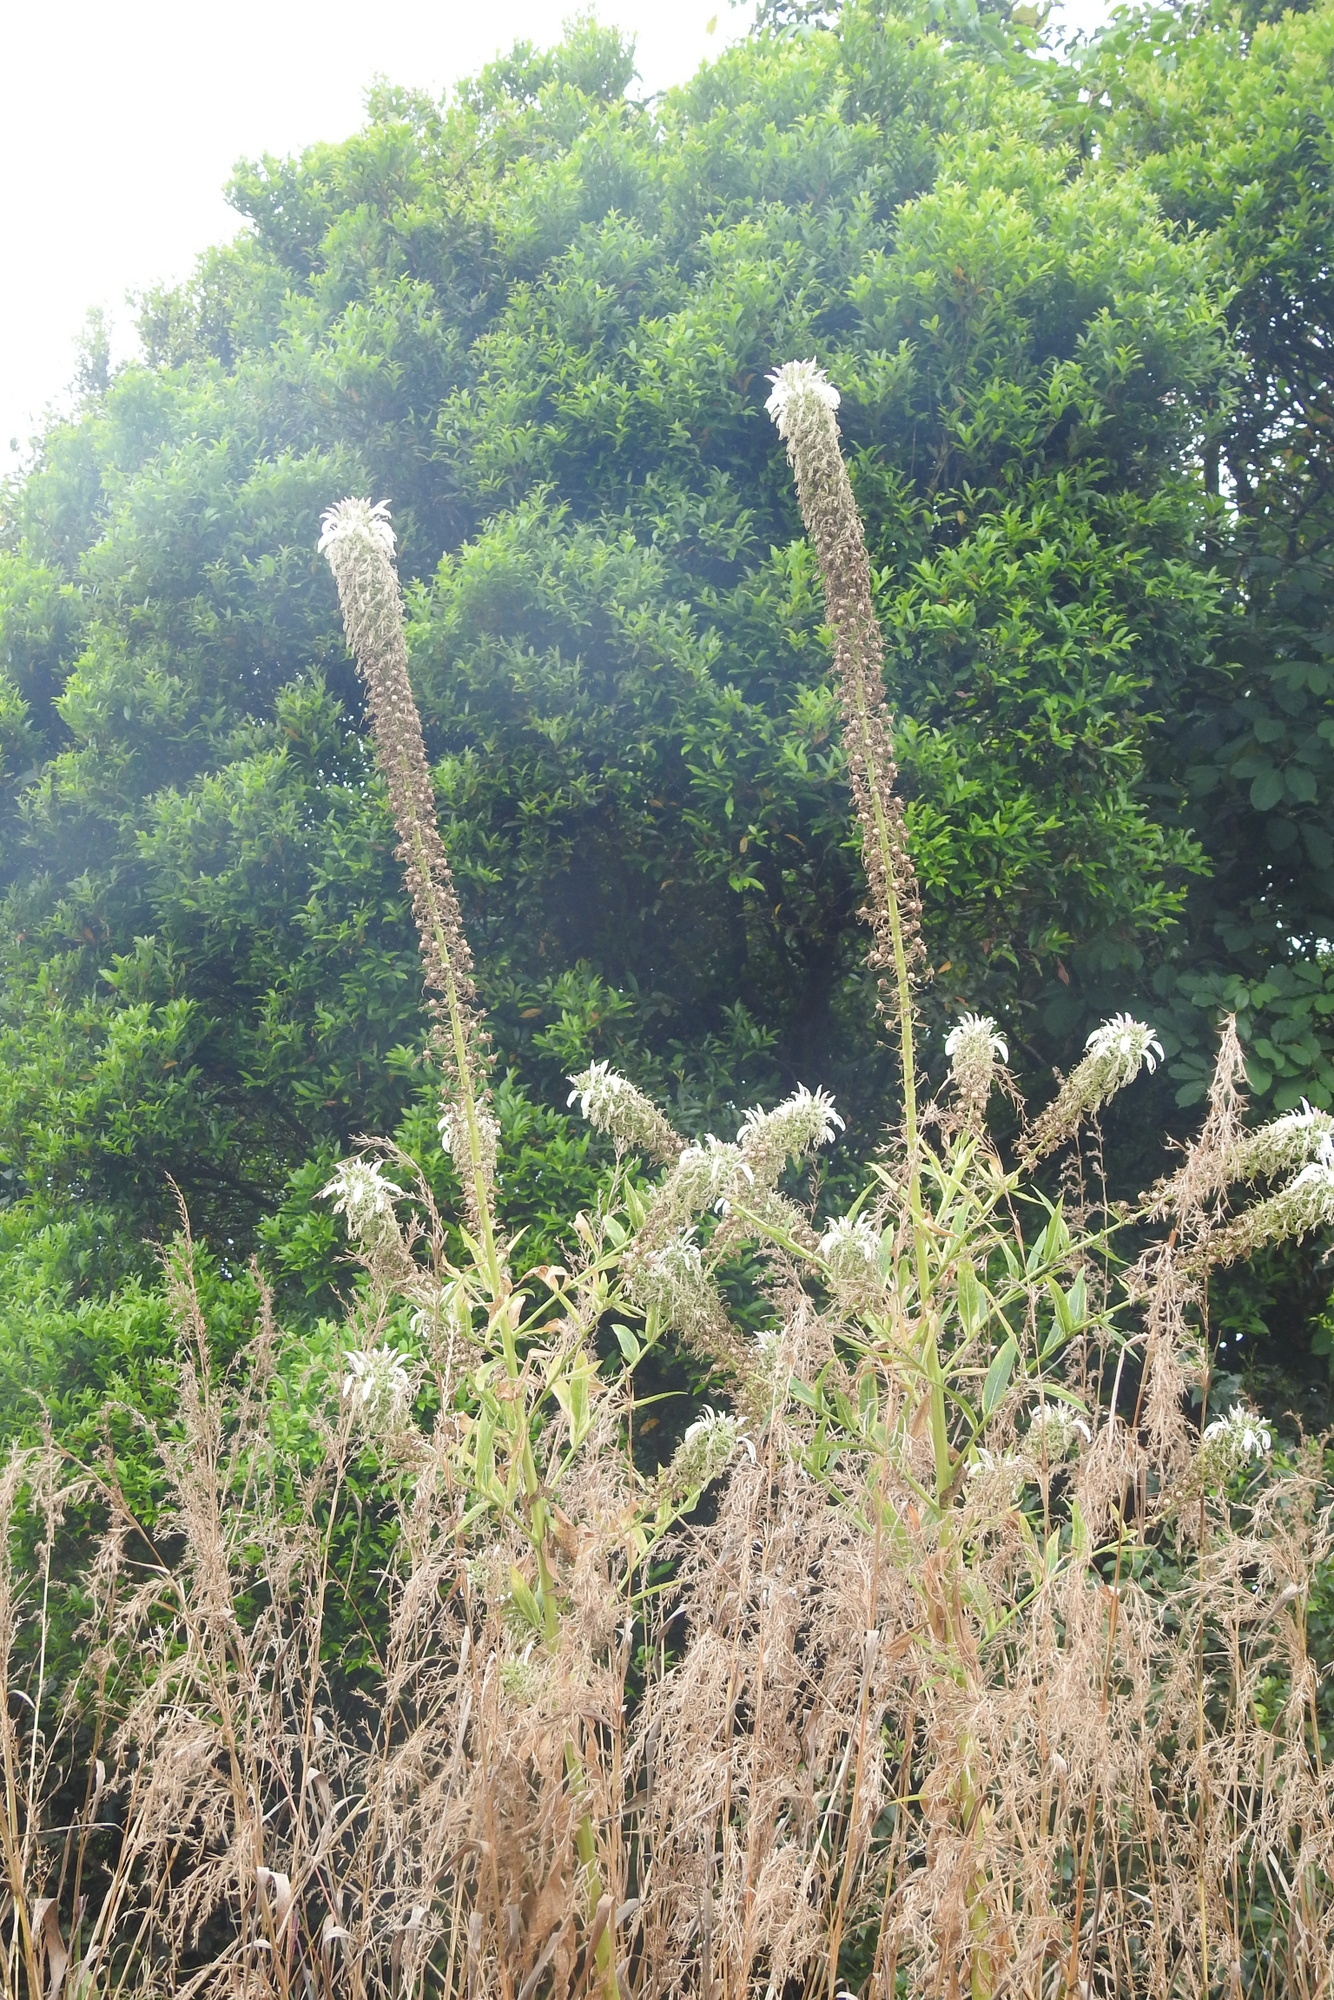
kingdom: Plantae
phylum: Tracheophyta
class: Magnoliopsida
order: Asterales
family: Campanulaceae
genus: Lobelia
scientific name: Lobelia nicotianifolia
